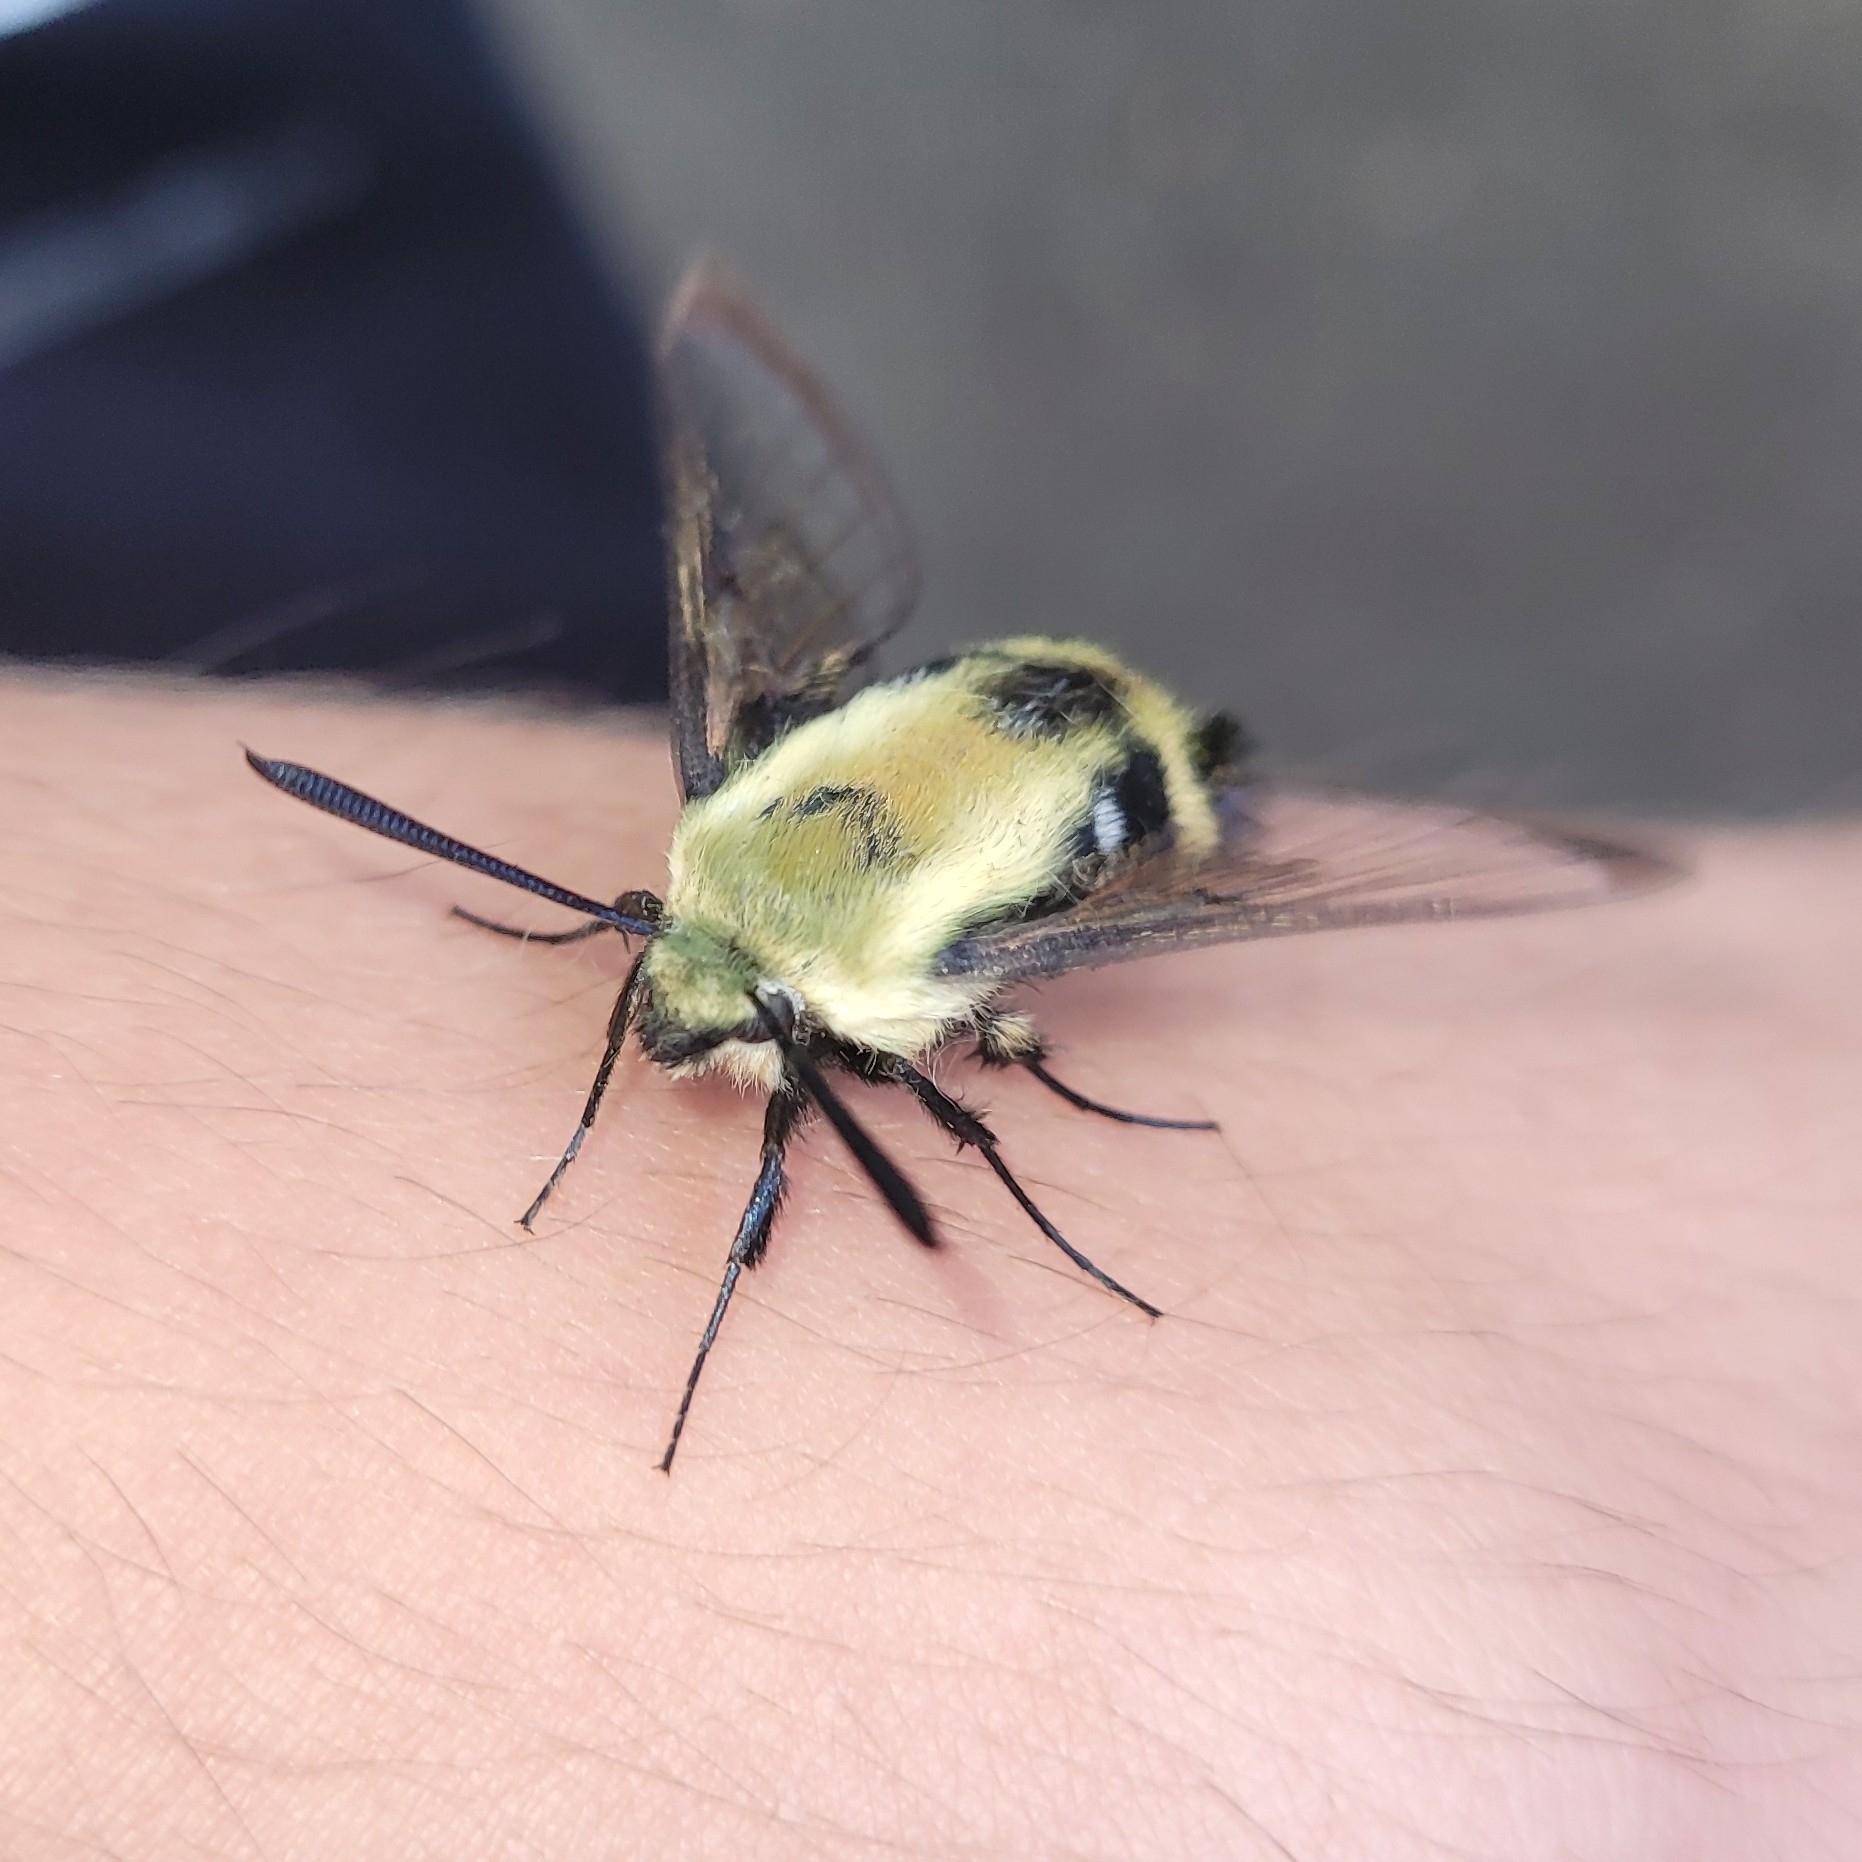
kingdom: Animalia
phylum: Arthropoda
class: Insecta
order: Lepidoptera
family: Sphingidae
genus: Hemaris
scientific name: Hemaris diffinis
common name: Bumblebee moth
